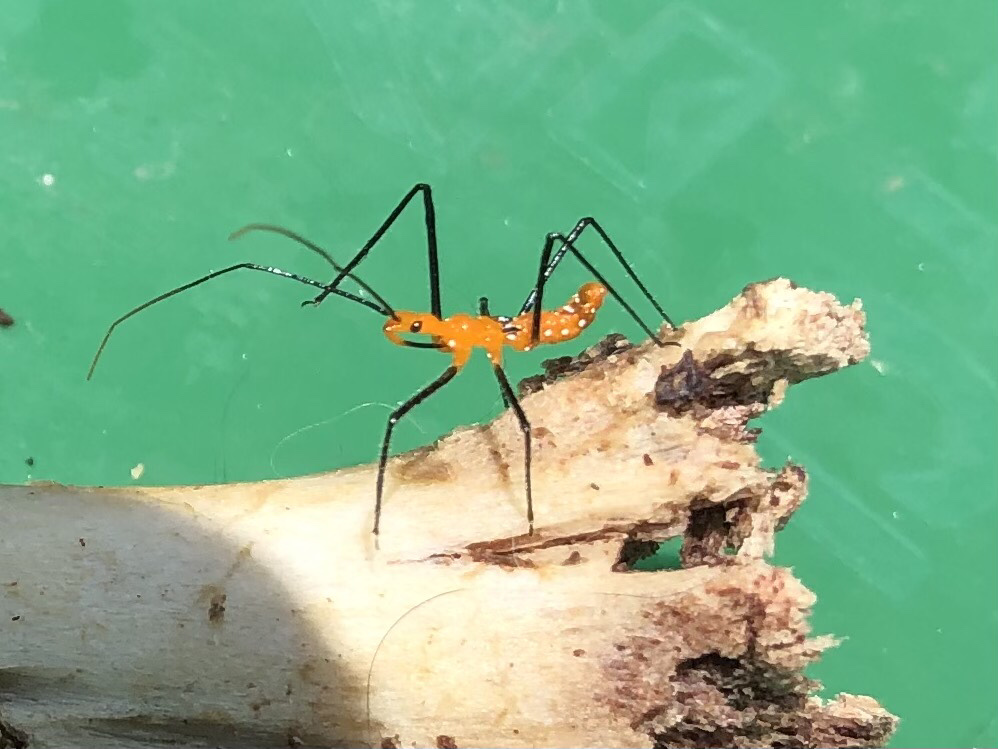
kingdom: Animalia
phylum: Arthropoda
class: Insecta
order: Hemiptera
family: Reduviidae
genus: Zelus
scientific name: Zelus longipes
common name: Milkweed assassin bug
